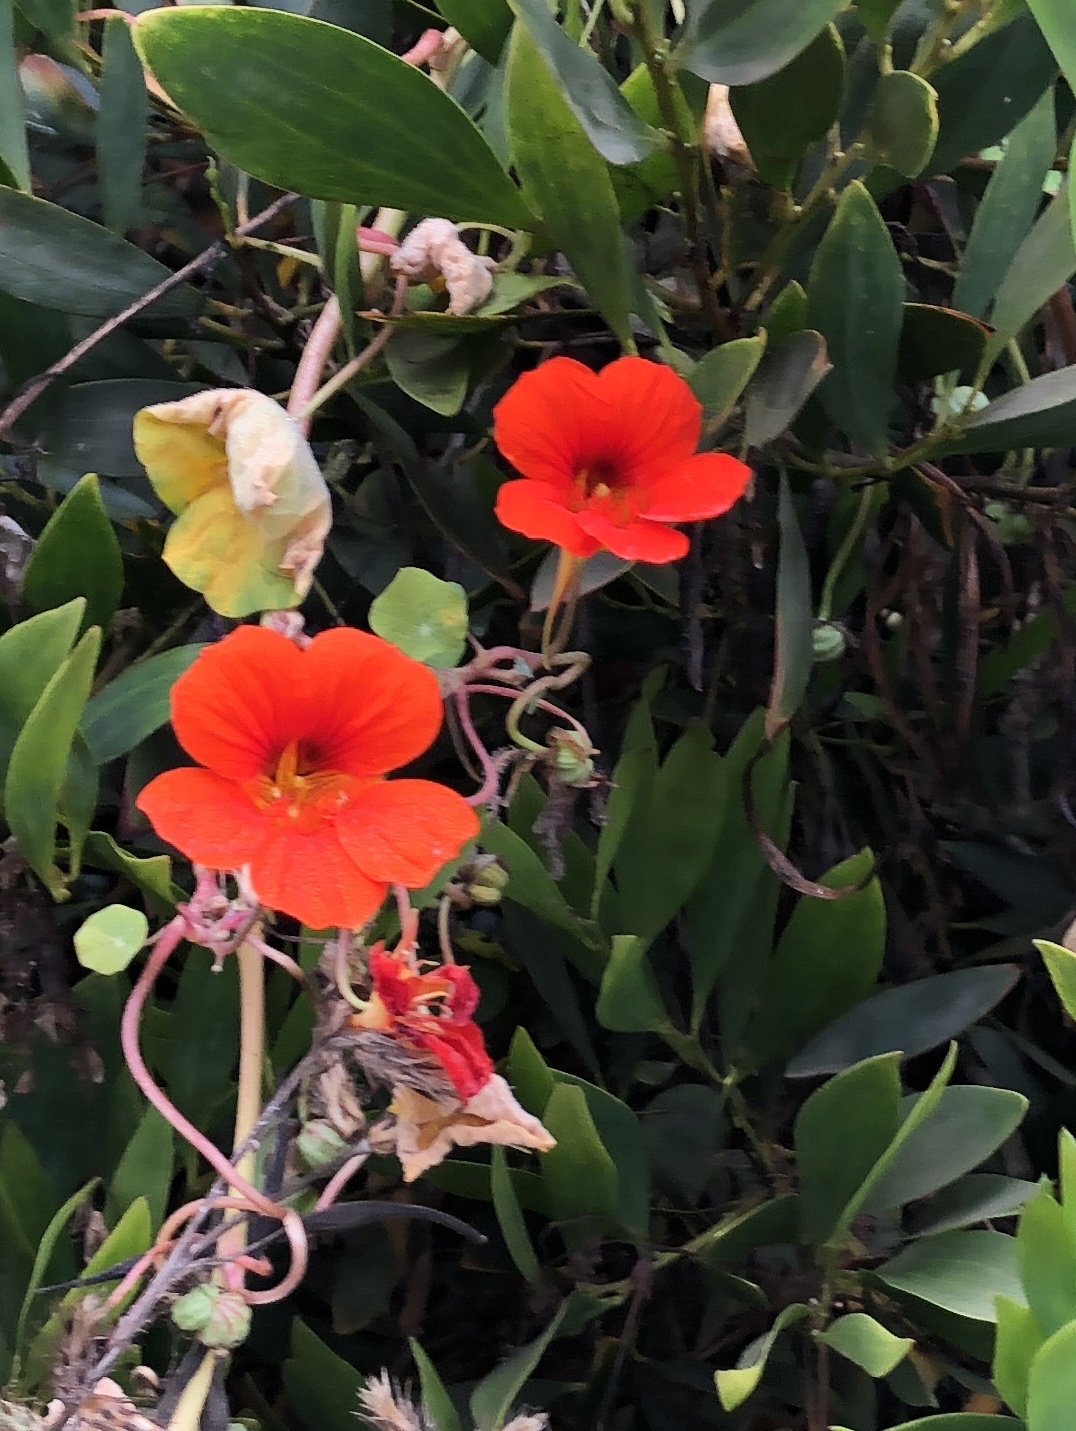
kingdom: Plantae
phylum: Tracheophyta
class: Magnoliopsida
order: Brassicales
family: Tropaeolaceae
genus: Tropaeolum
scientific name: Tropaeolum majus
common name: Nasturtium
